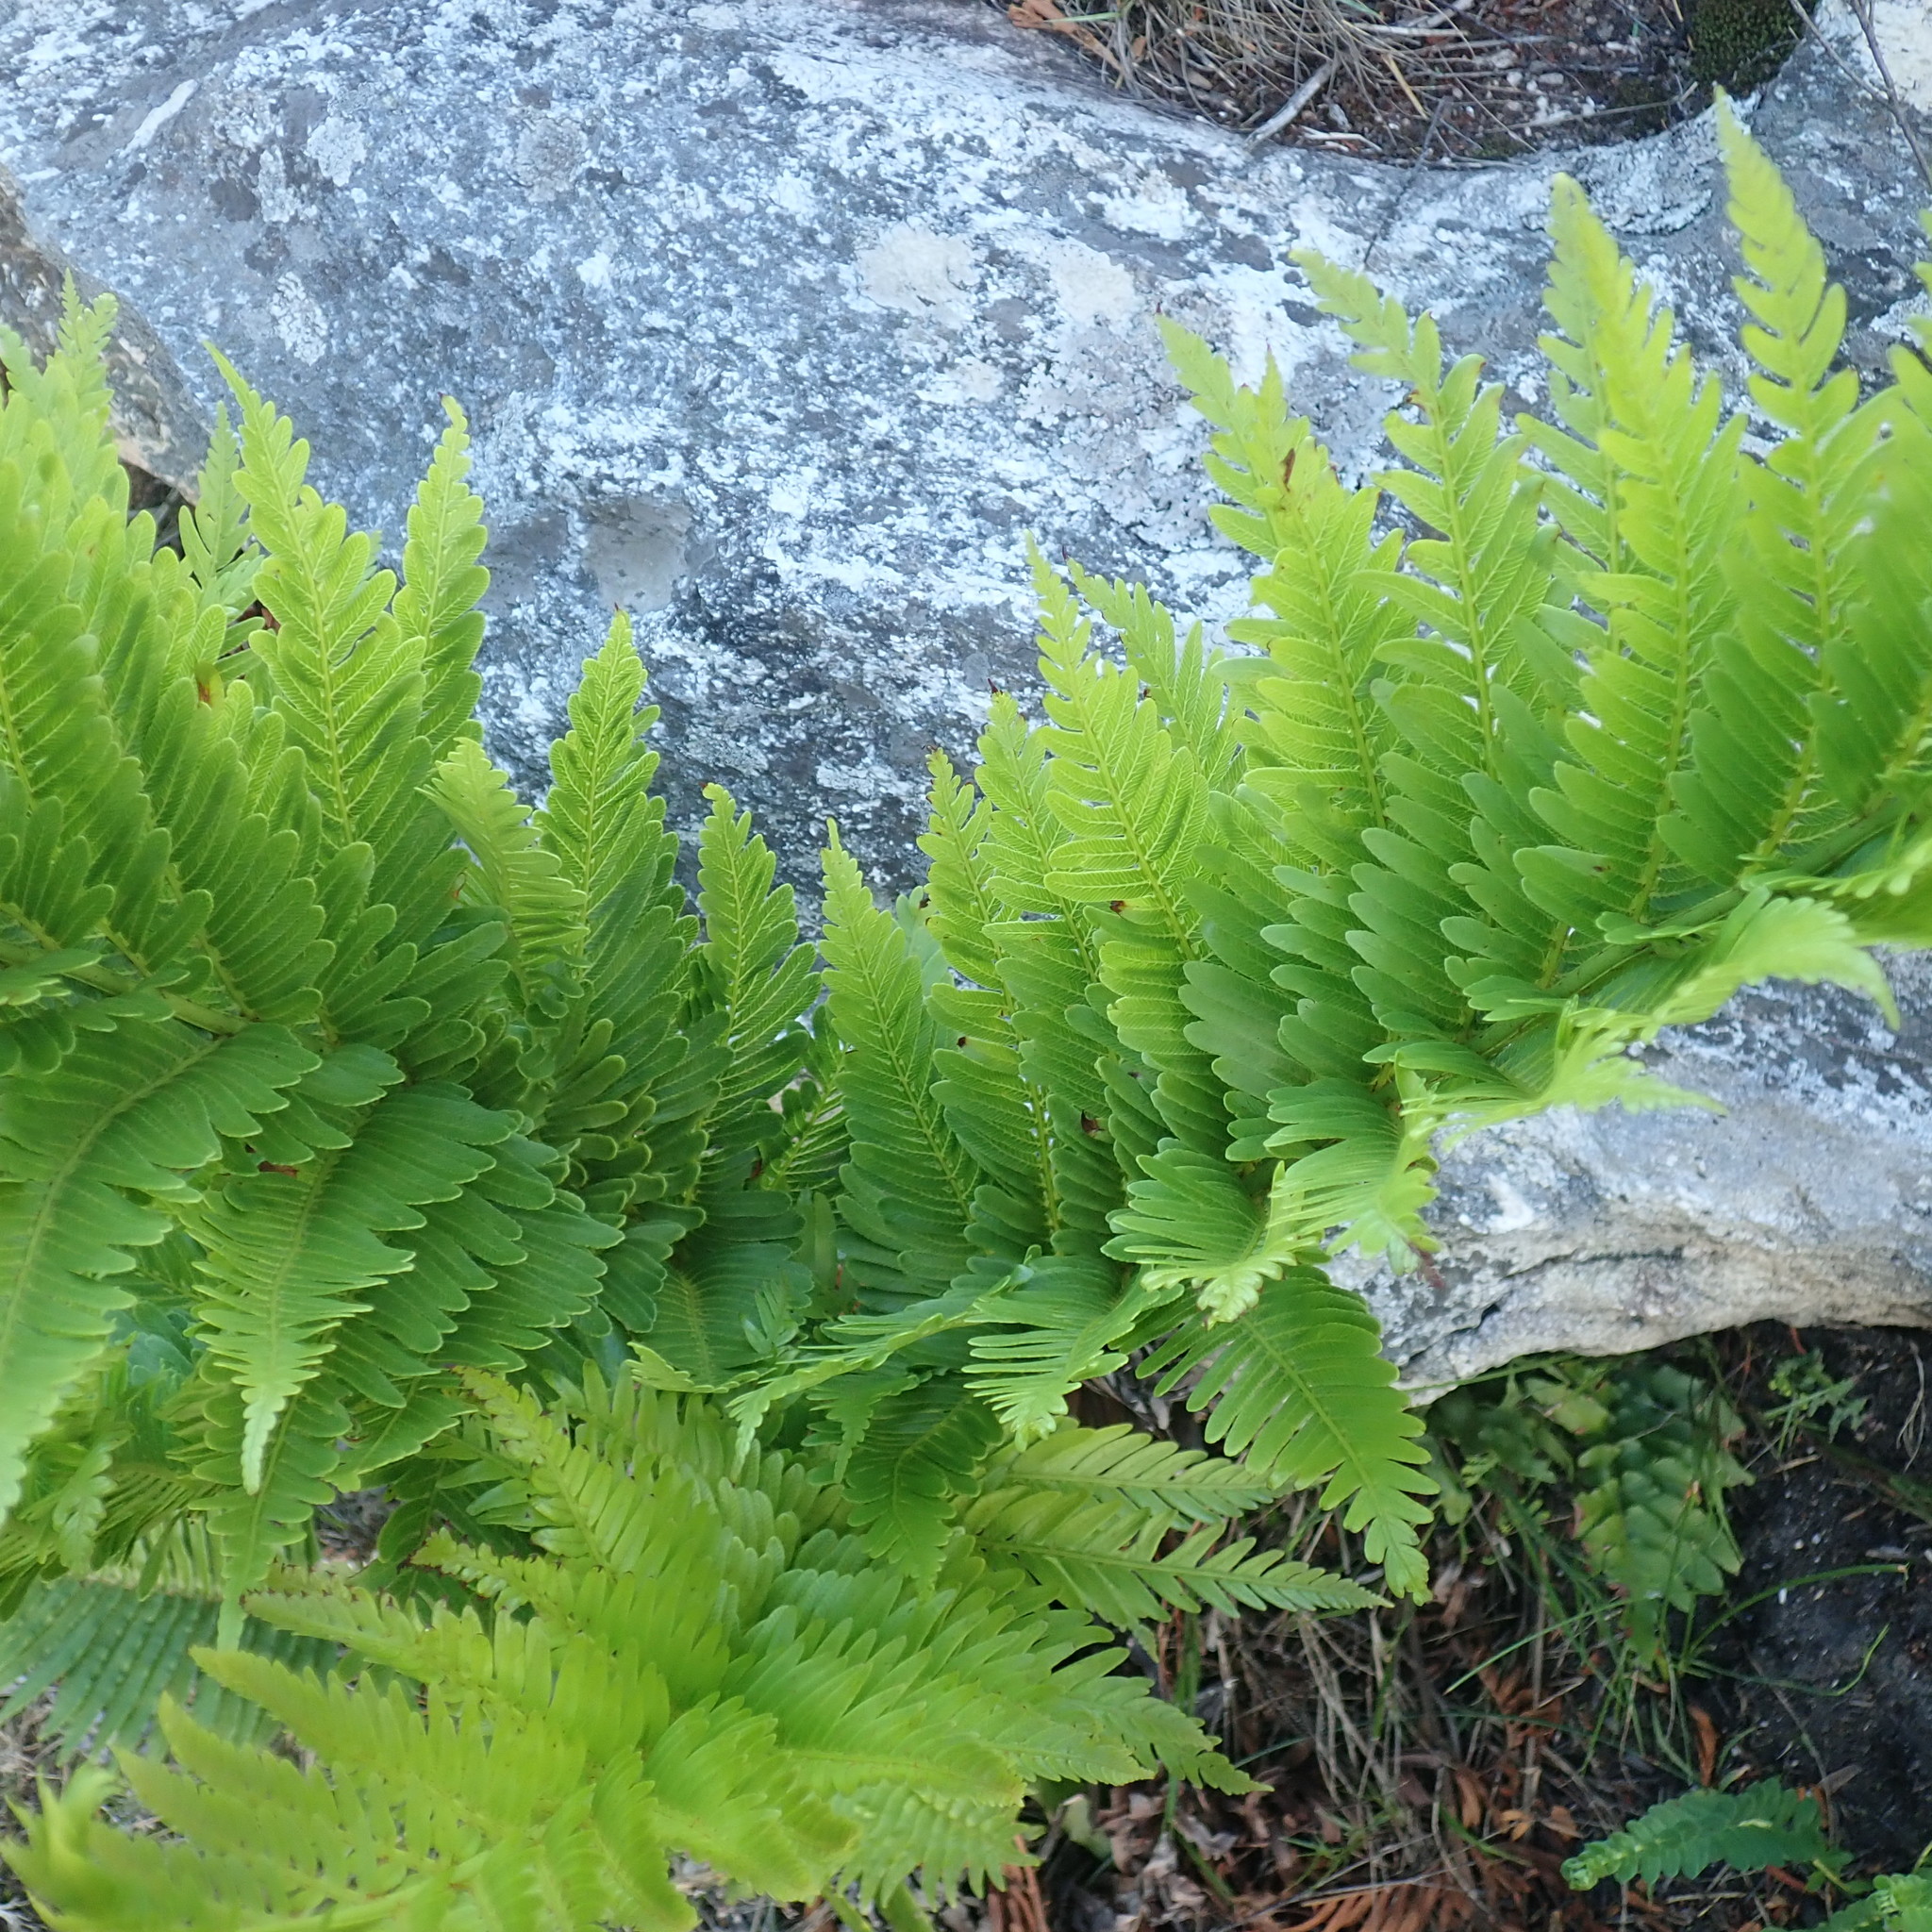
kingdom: Plantae
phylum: Tracheophyta
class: Polypodiopsida
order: Osmundales
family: Osmundaceae
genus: Todea
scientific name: Todea barbara
